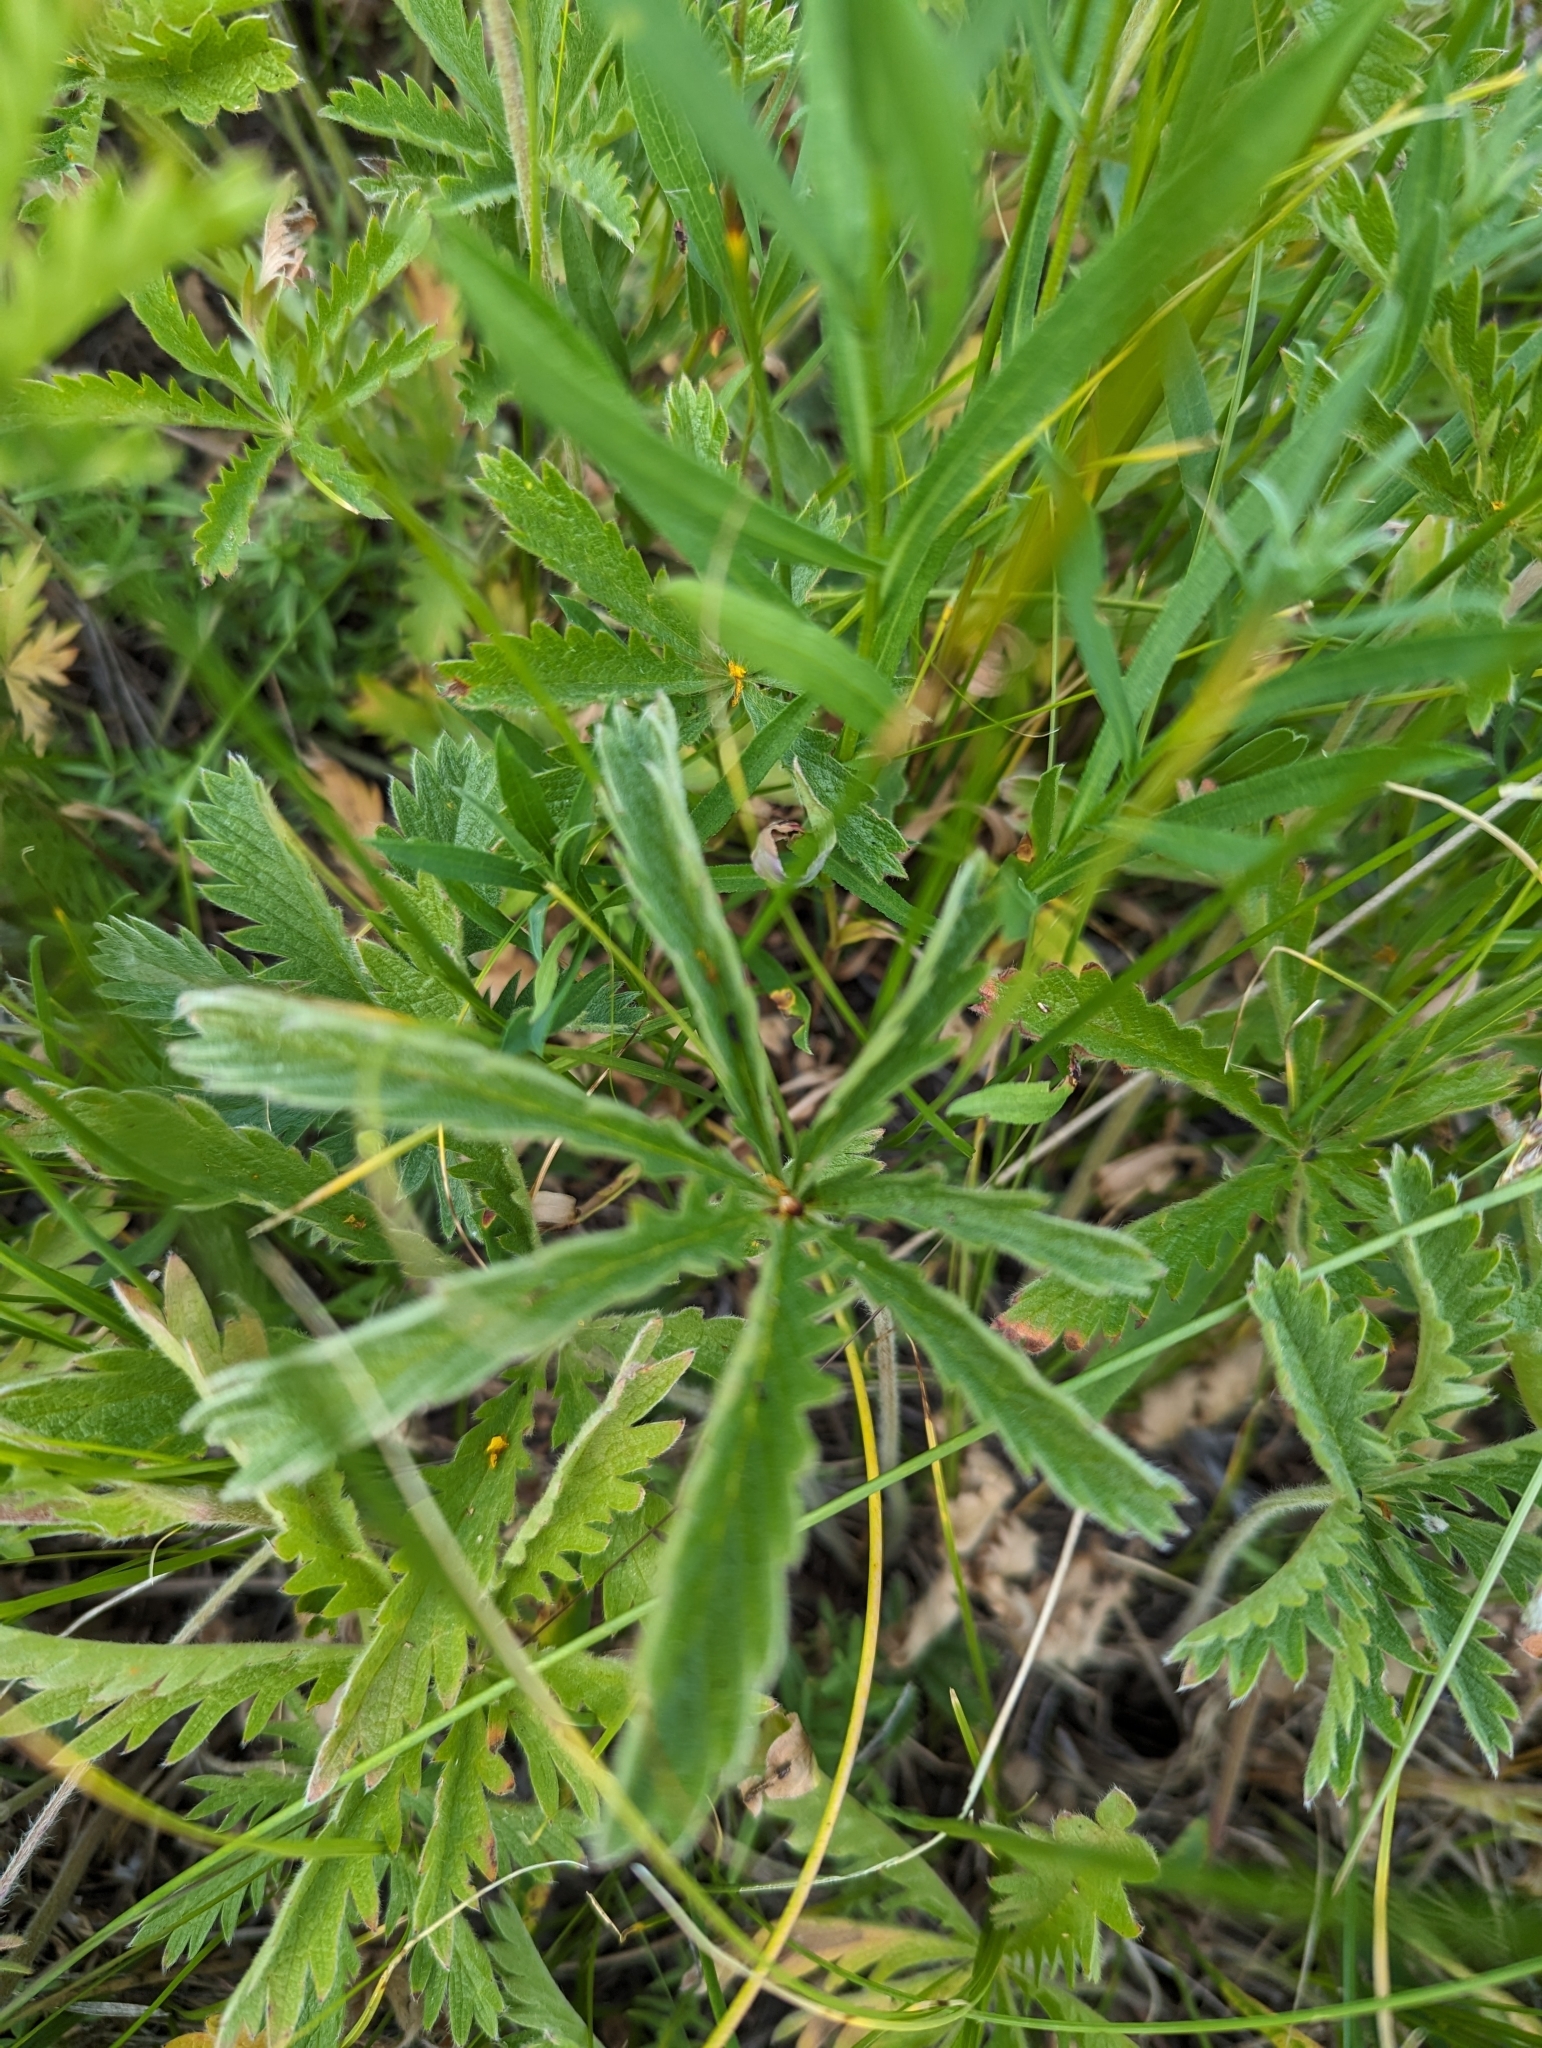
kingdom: Plantae
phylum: Tracheophyta
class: Magnoliopsida
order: Rosales
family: Rosaceae
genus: Potentilla
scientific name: Potentilla gracilis
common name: Graceful cinquefoil
